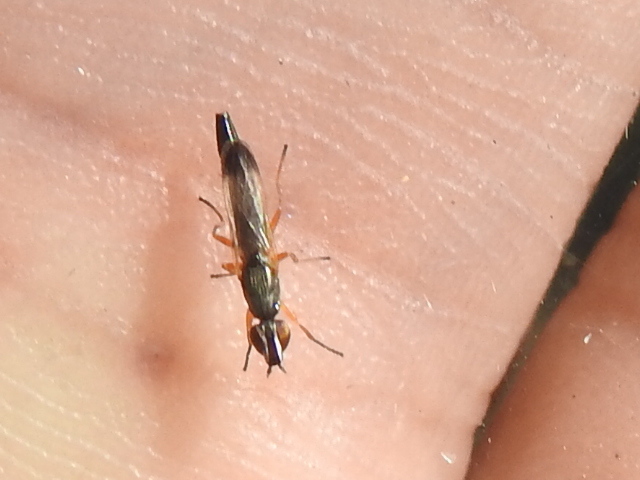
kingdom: Animalia
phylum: Arthropoda
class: Insecta
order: Diptera
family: Ulidiidae
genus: Eumetopiella
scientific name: Eumetopiella rufipes
